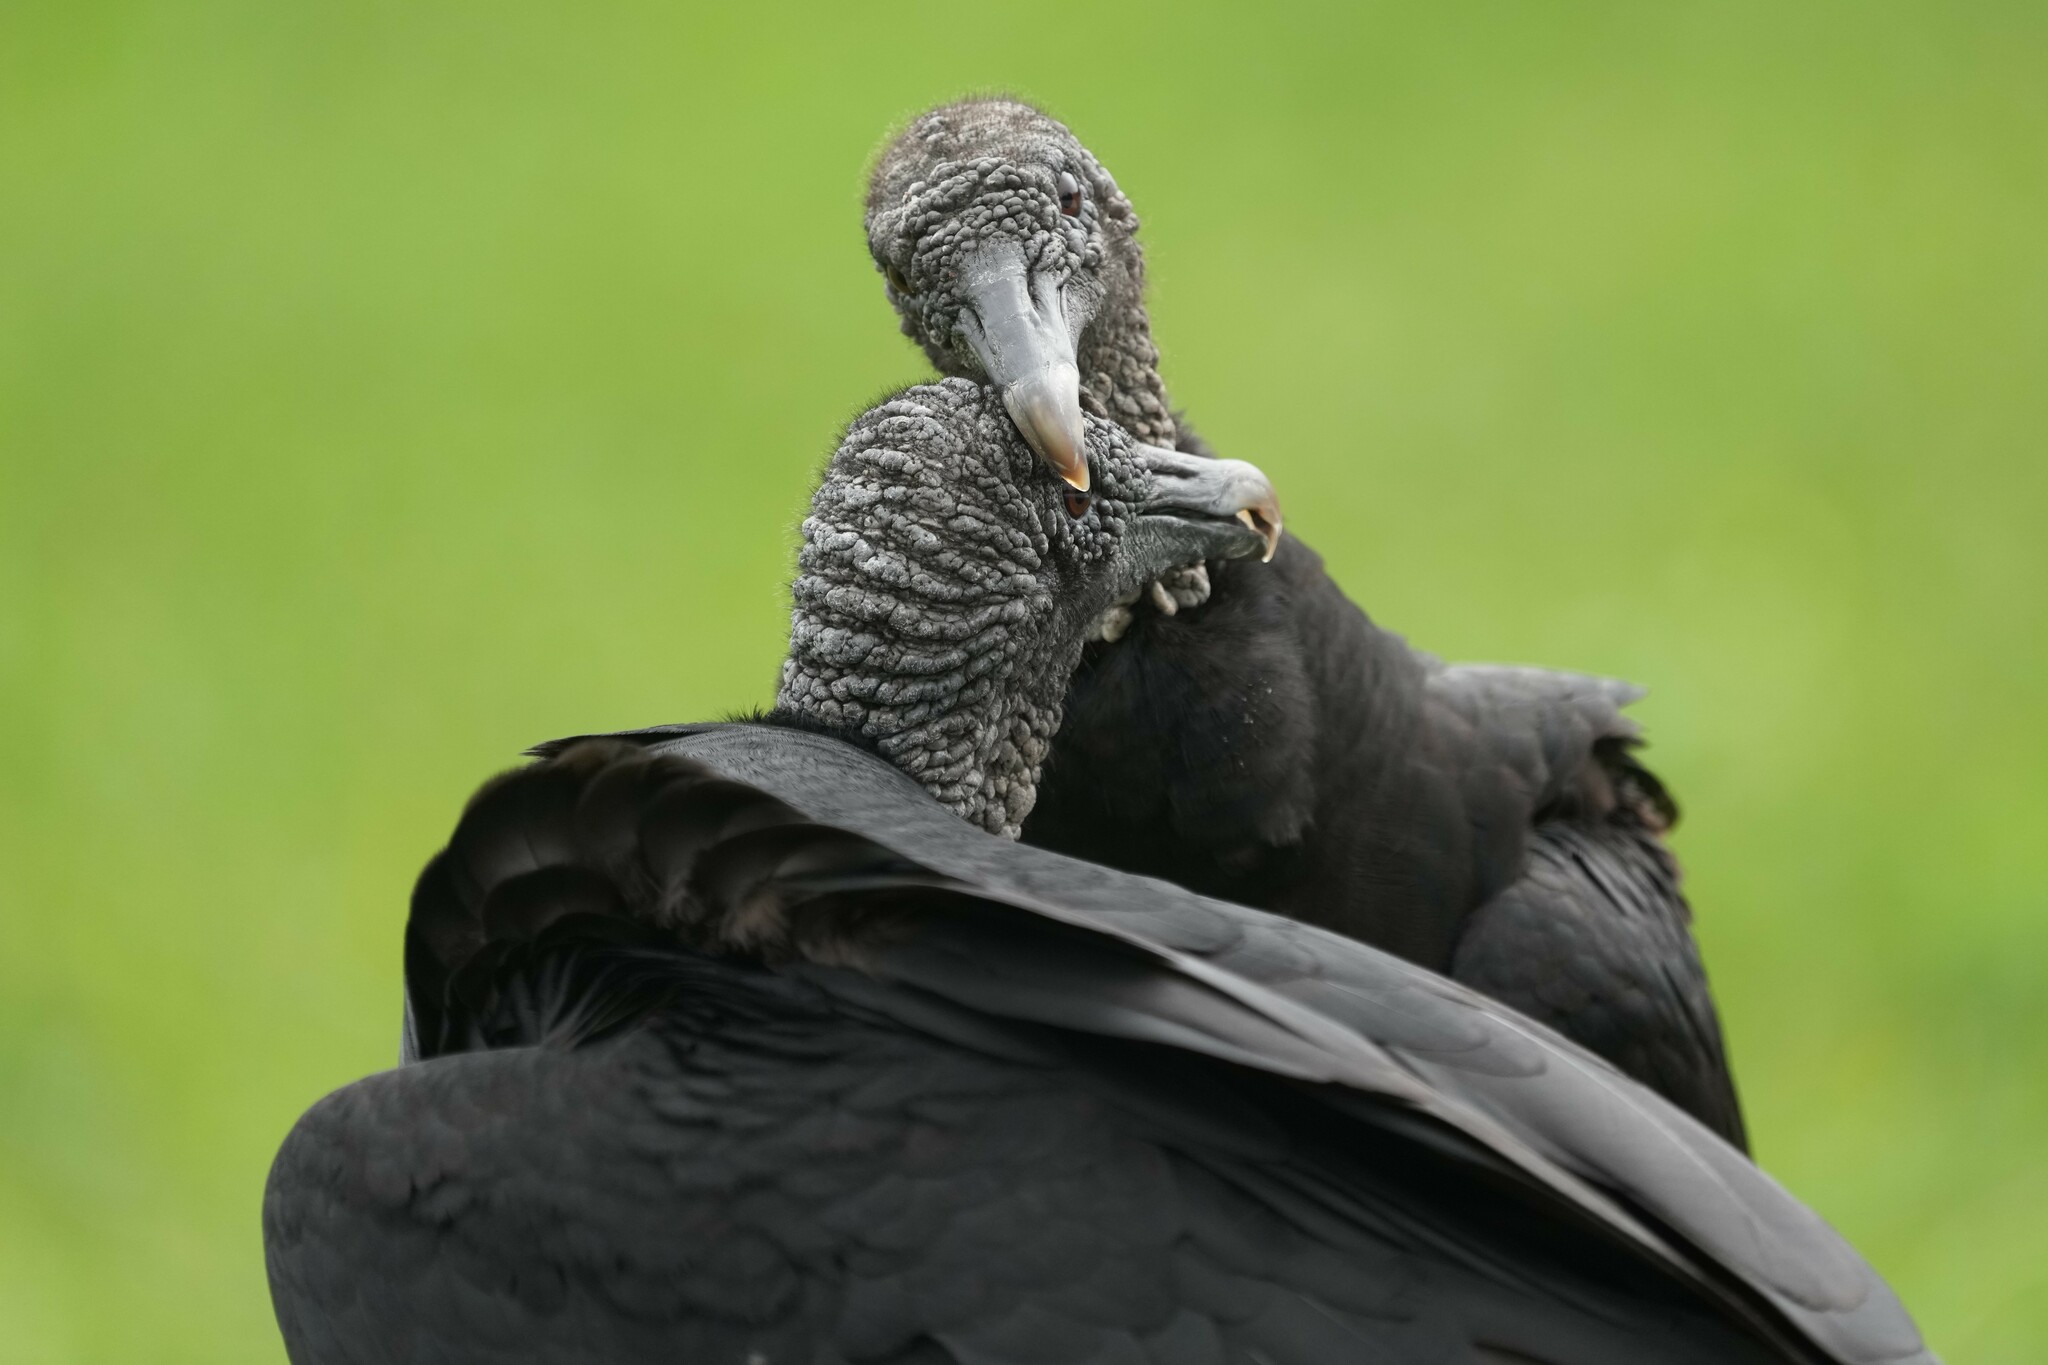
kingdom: Animalia
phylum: Chordata
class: Aves
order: Accipitriformes
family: Cathartidae
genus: Coragyps
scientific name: Coragyps atratus
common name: Black vulture
